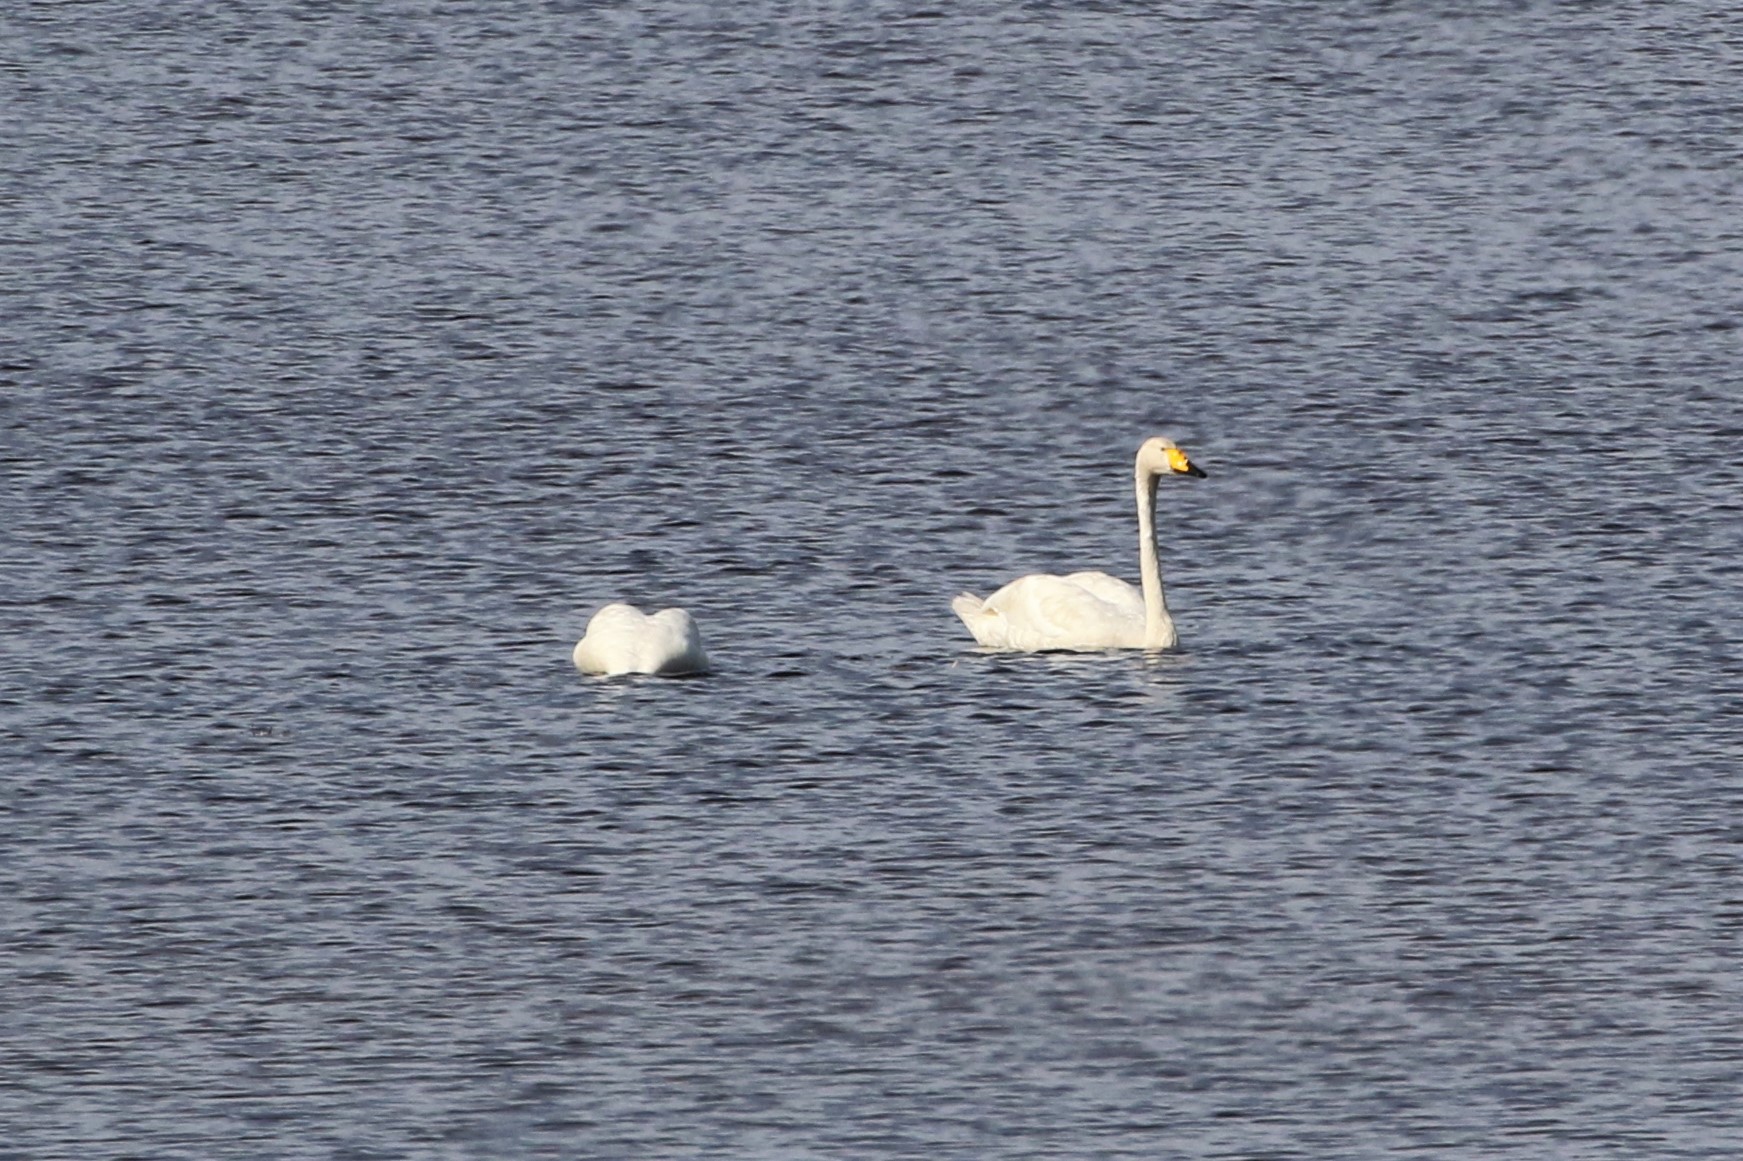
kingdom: Animalia
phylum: Chordata
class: Aves
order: Anseriformes
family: Anatidae
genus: Cygnus
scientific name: Cygnus cygnus
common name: Whooper swan
